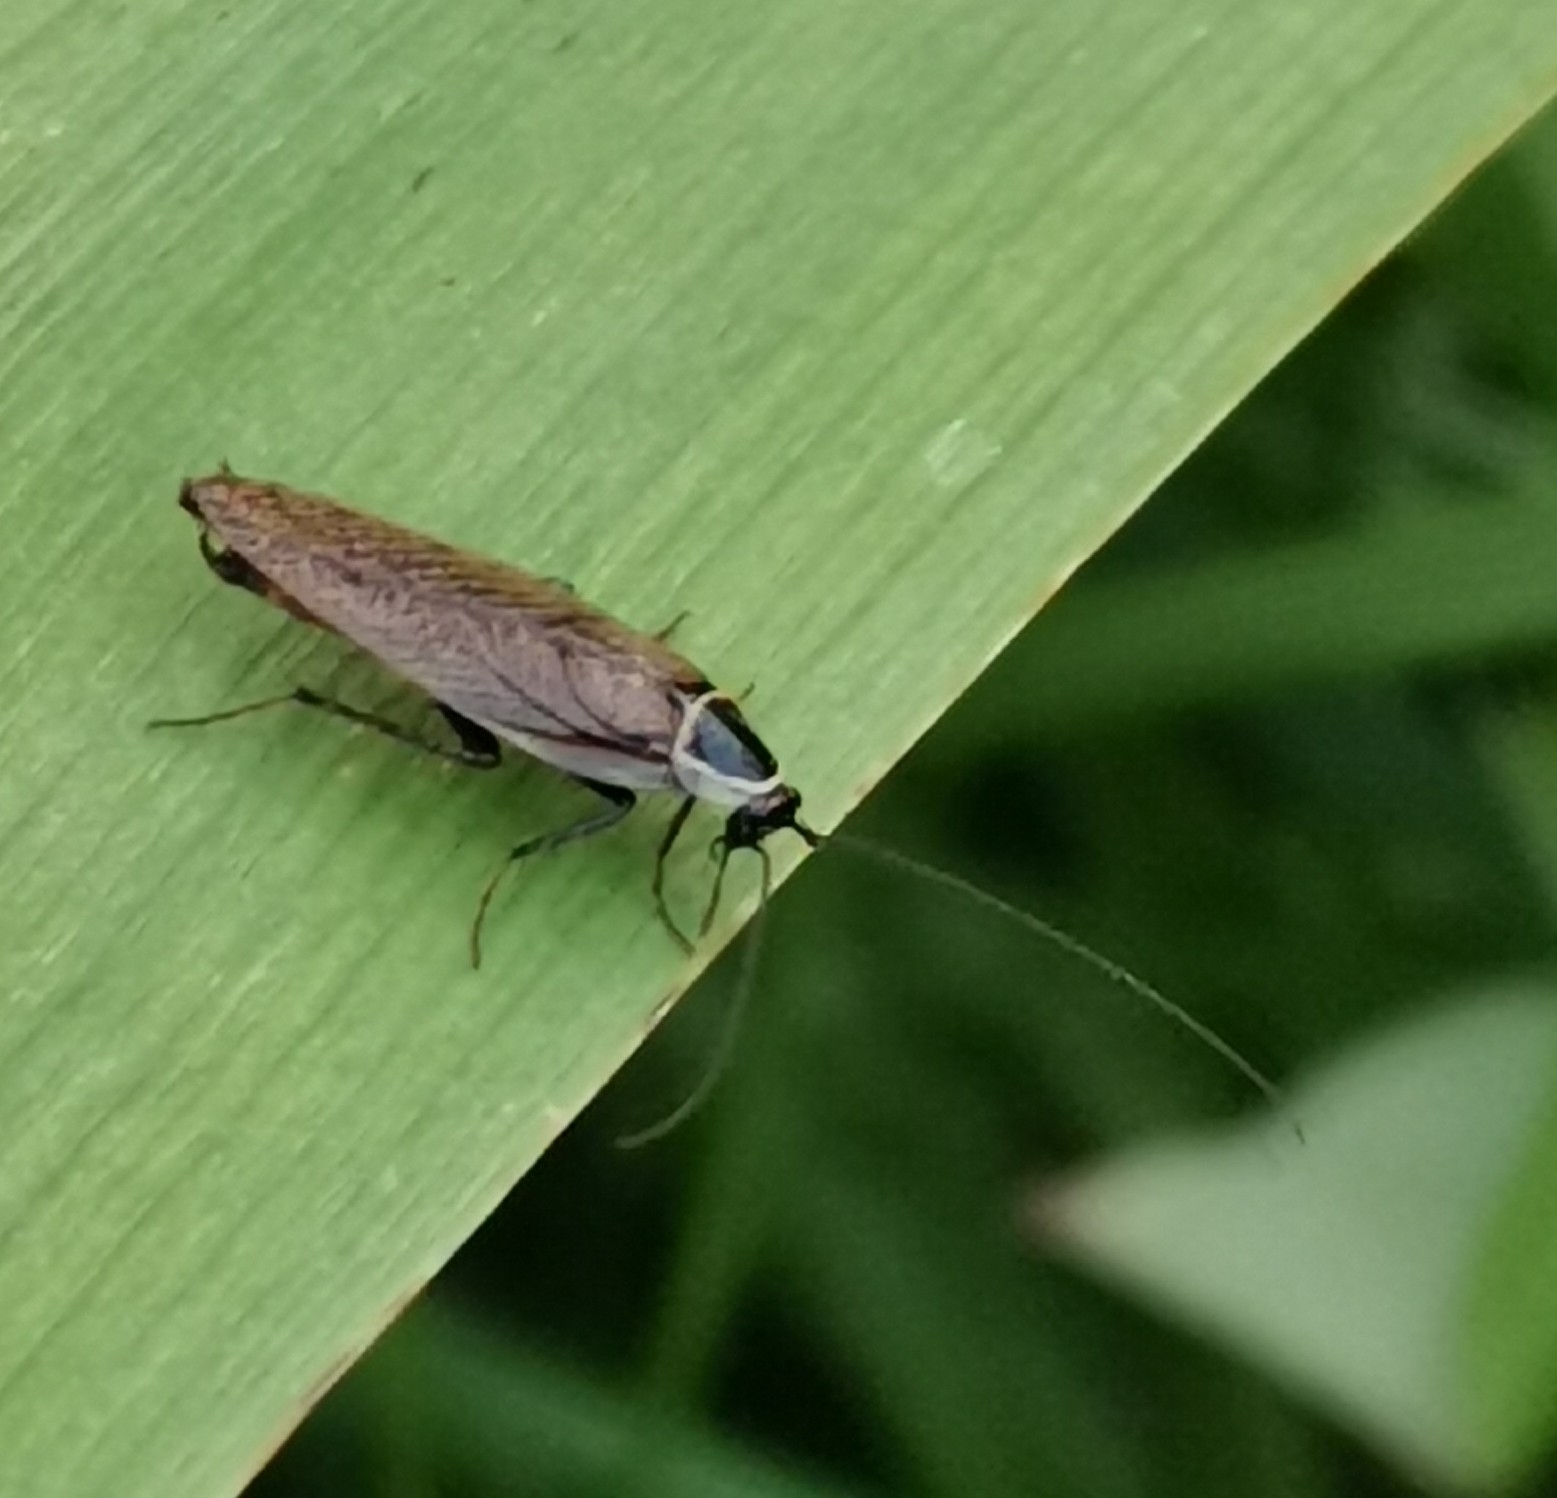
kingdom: Animalia
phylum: Arthropoda
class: Insecta
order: Blattodea
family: Ectobiidae
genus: Ectobius
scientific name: Ectobius sylvestris
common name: Forest cockroach
